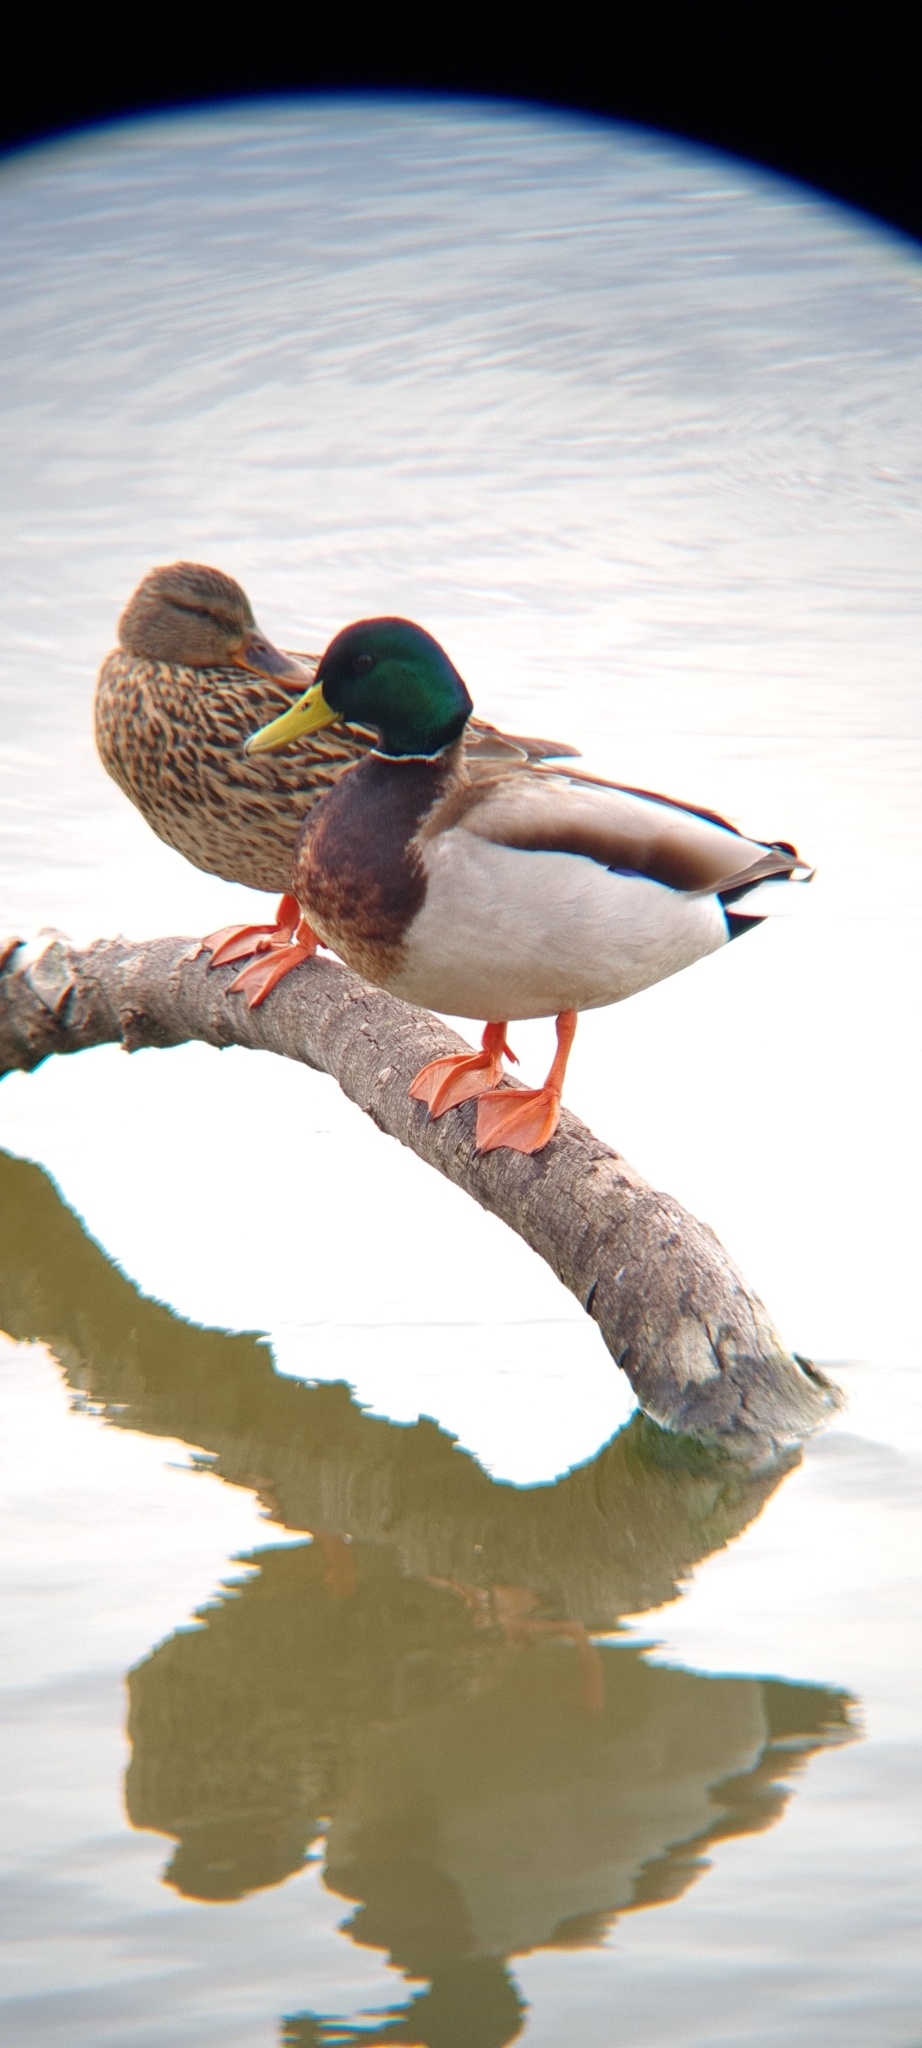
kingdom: Animalia
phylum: Chordata
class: Aves
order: Anseriformes
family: Anatidae
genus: Anas
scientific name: Anas platyrhynchos
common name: Mallard
